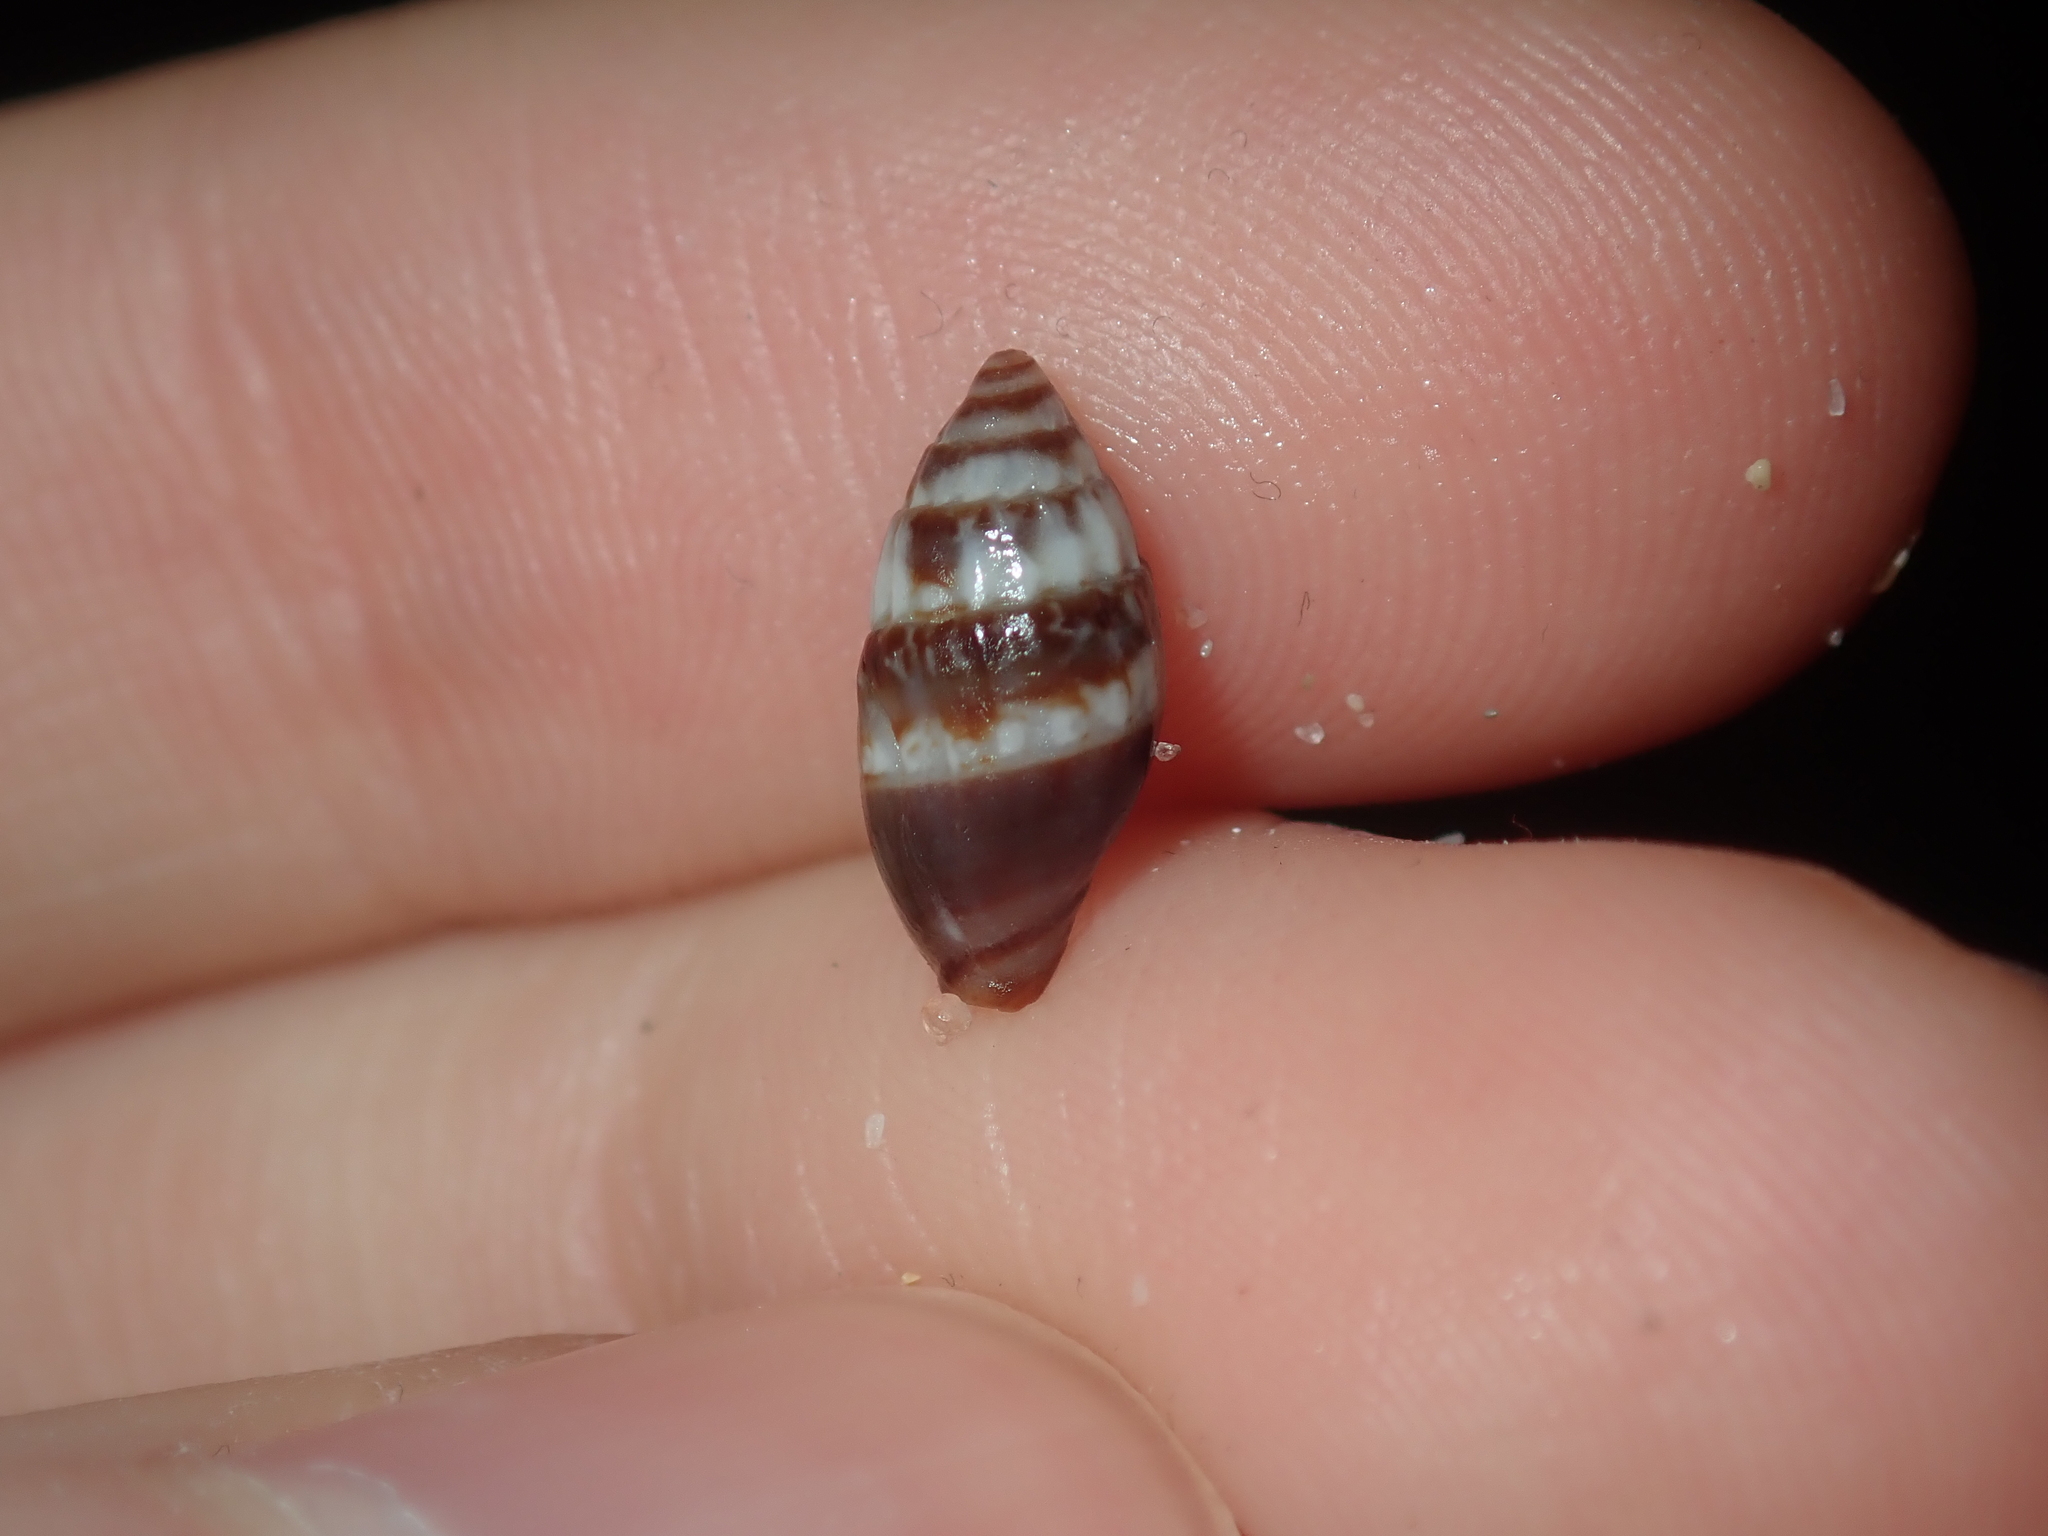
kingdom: Animalia
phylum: Mollusca
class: Gastropoda
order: Neogastropoda
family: Costellariidae
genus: Pusia
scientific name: Pusia simoneae
